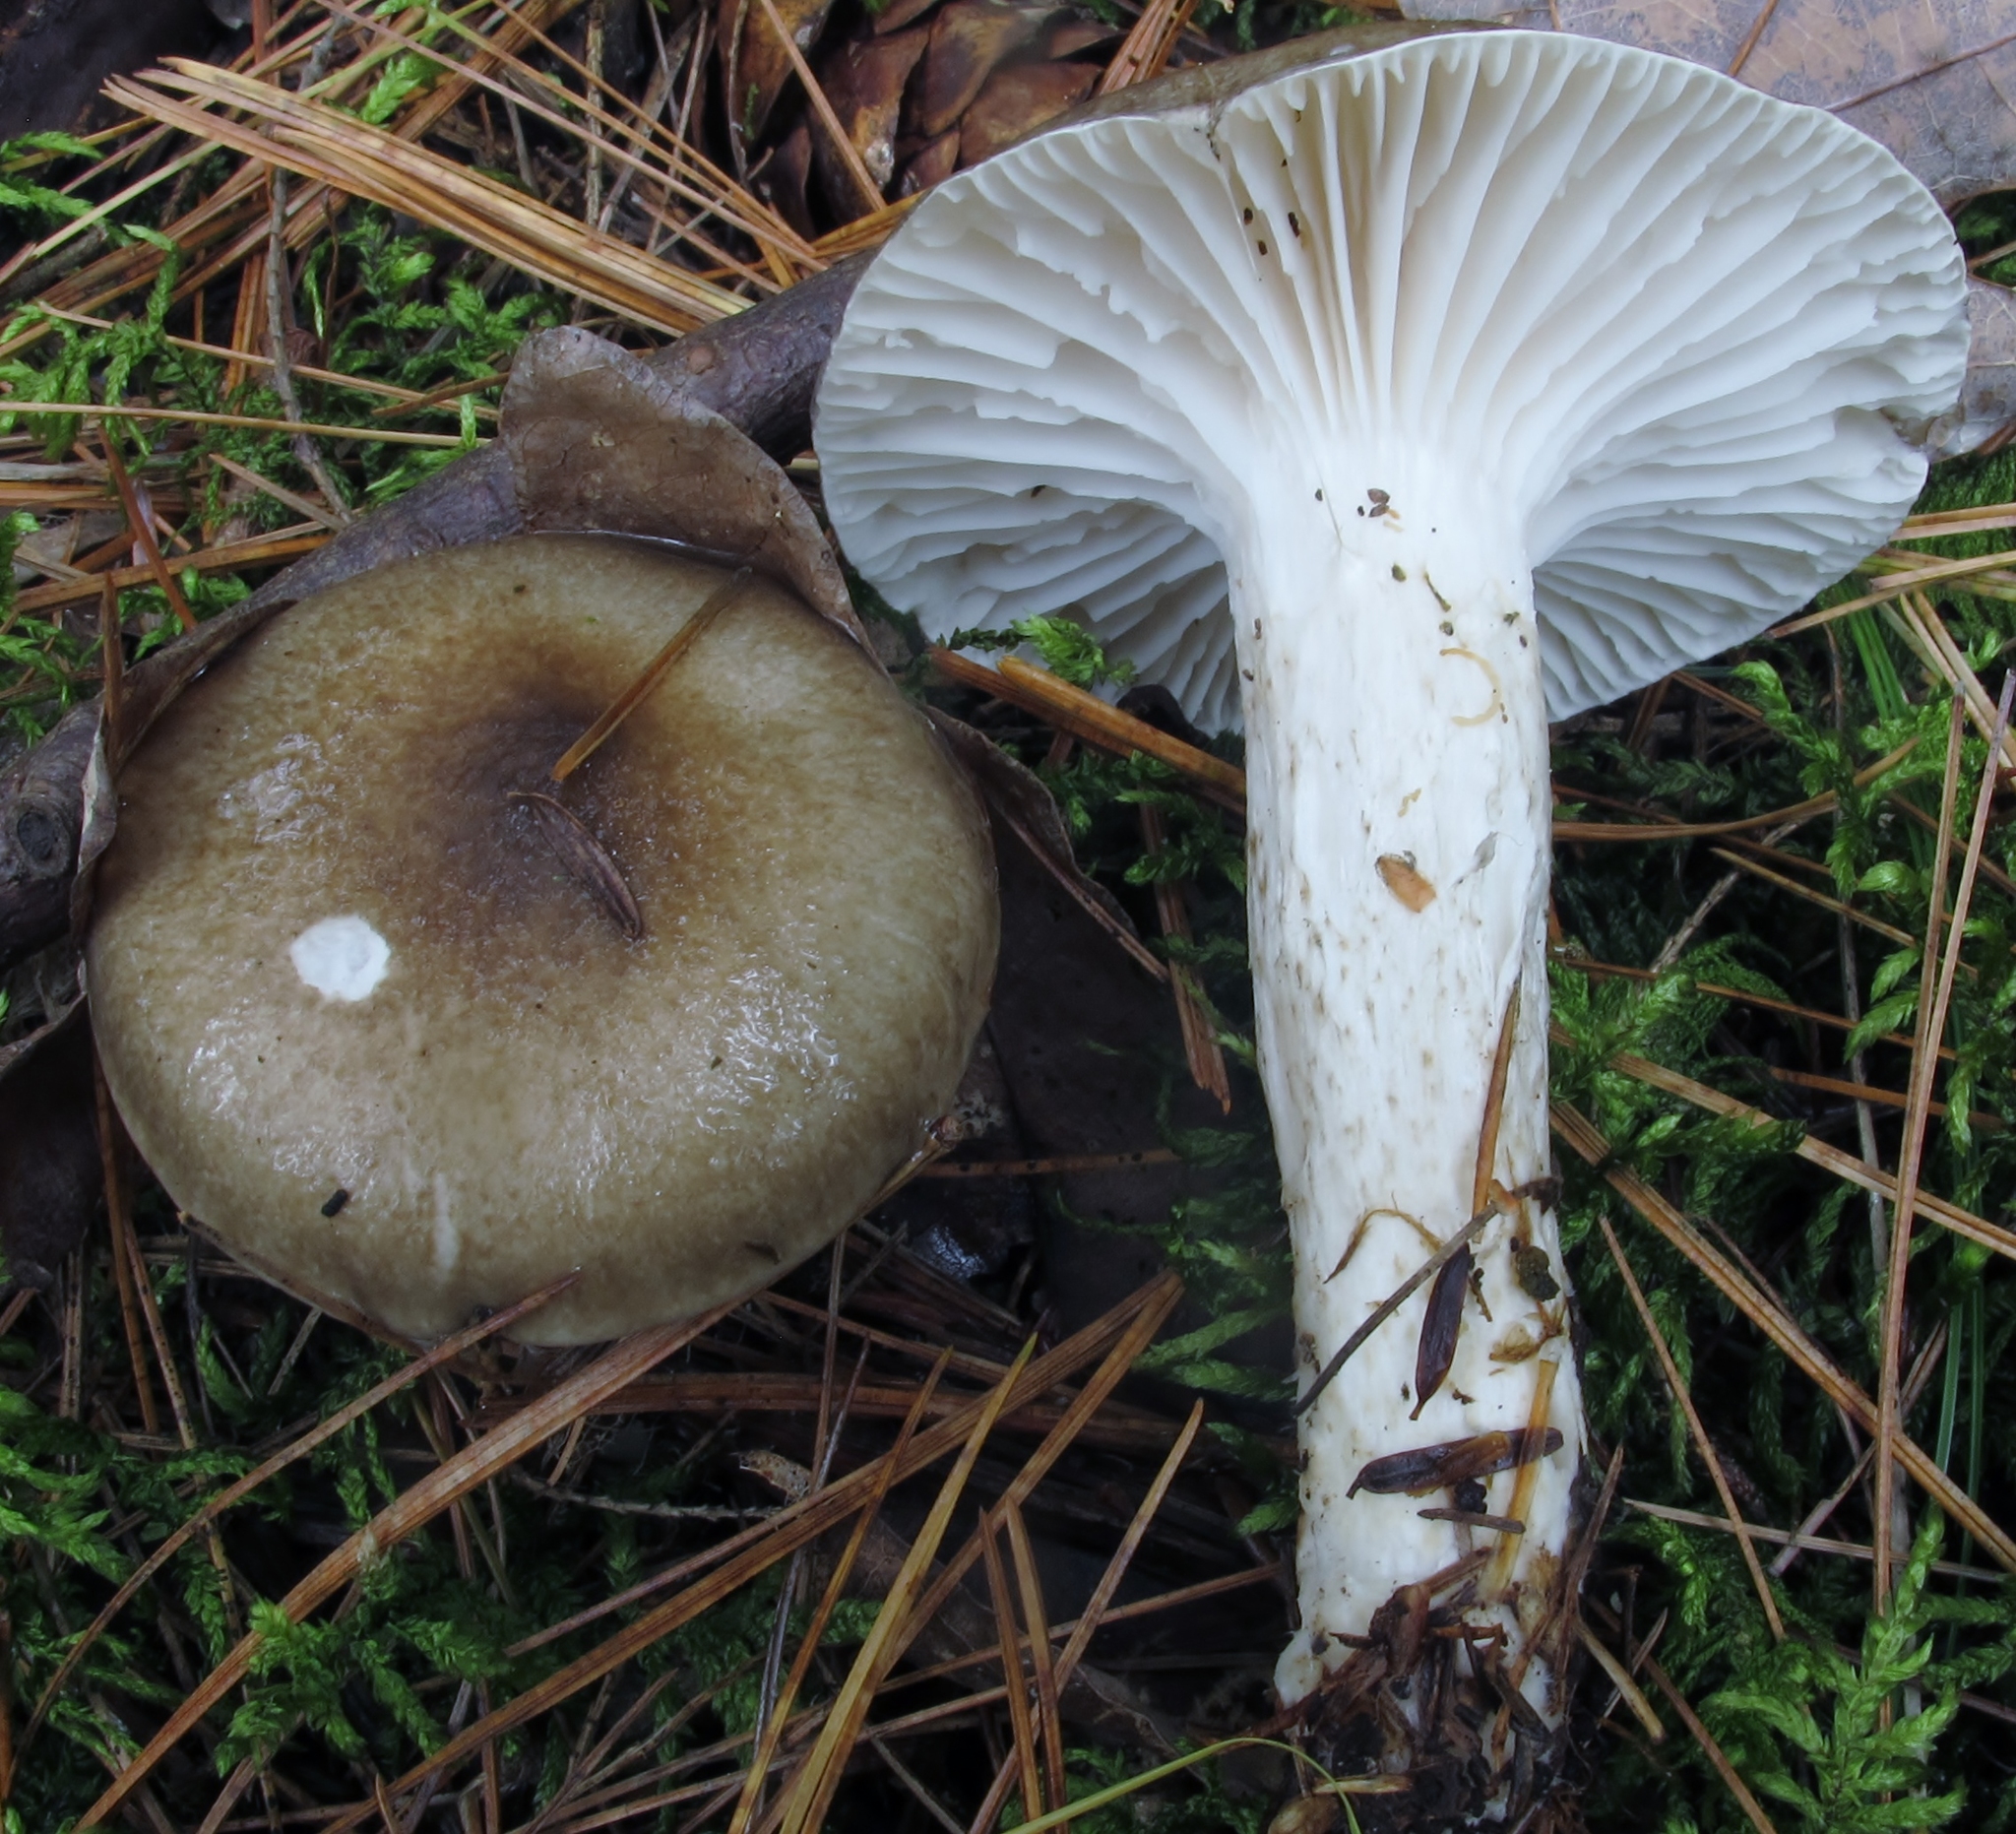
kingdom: Fungi
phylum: Basidiomycota
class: Agaricomycetes
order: Agaricales
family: Hygrophoraceae
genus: Hygrophorus
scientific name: Hygrophorus fuligineus
